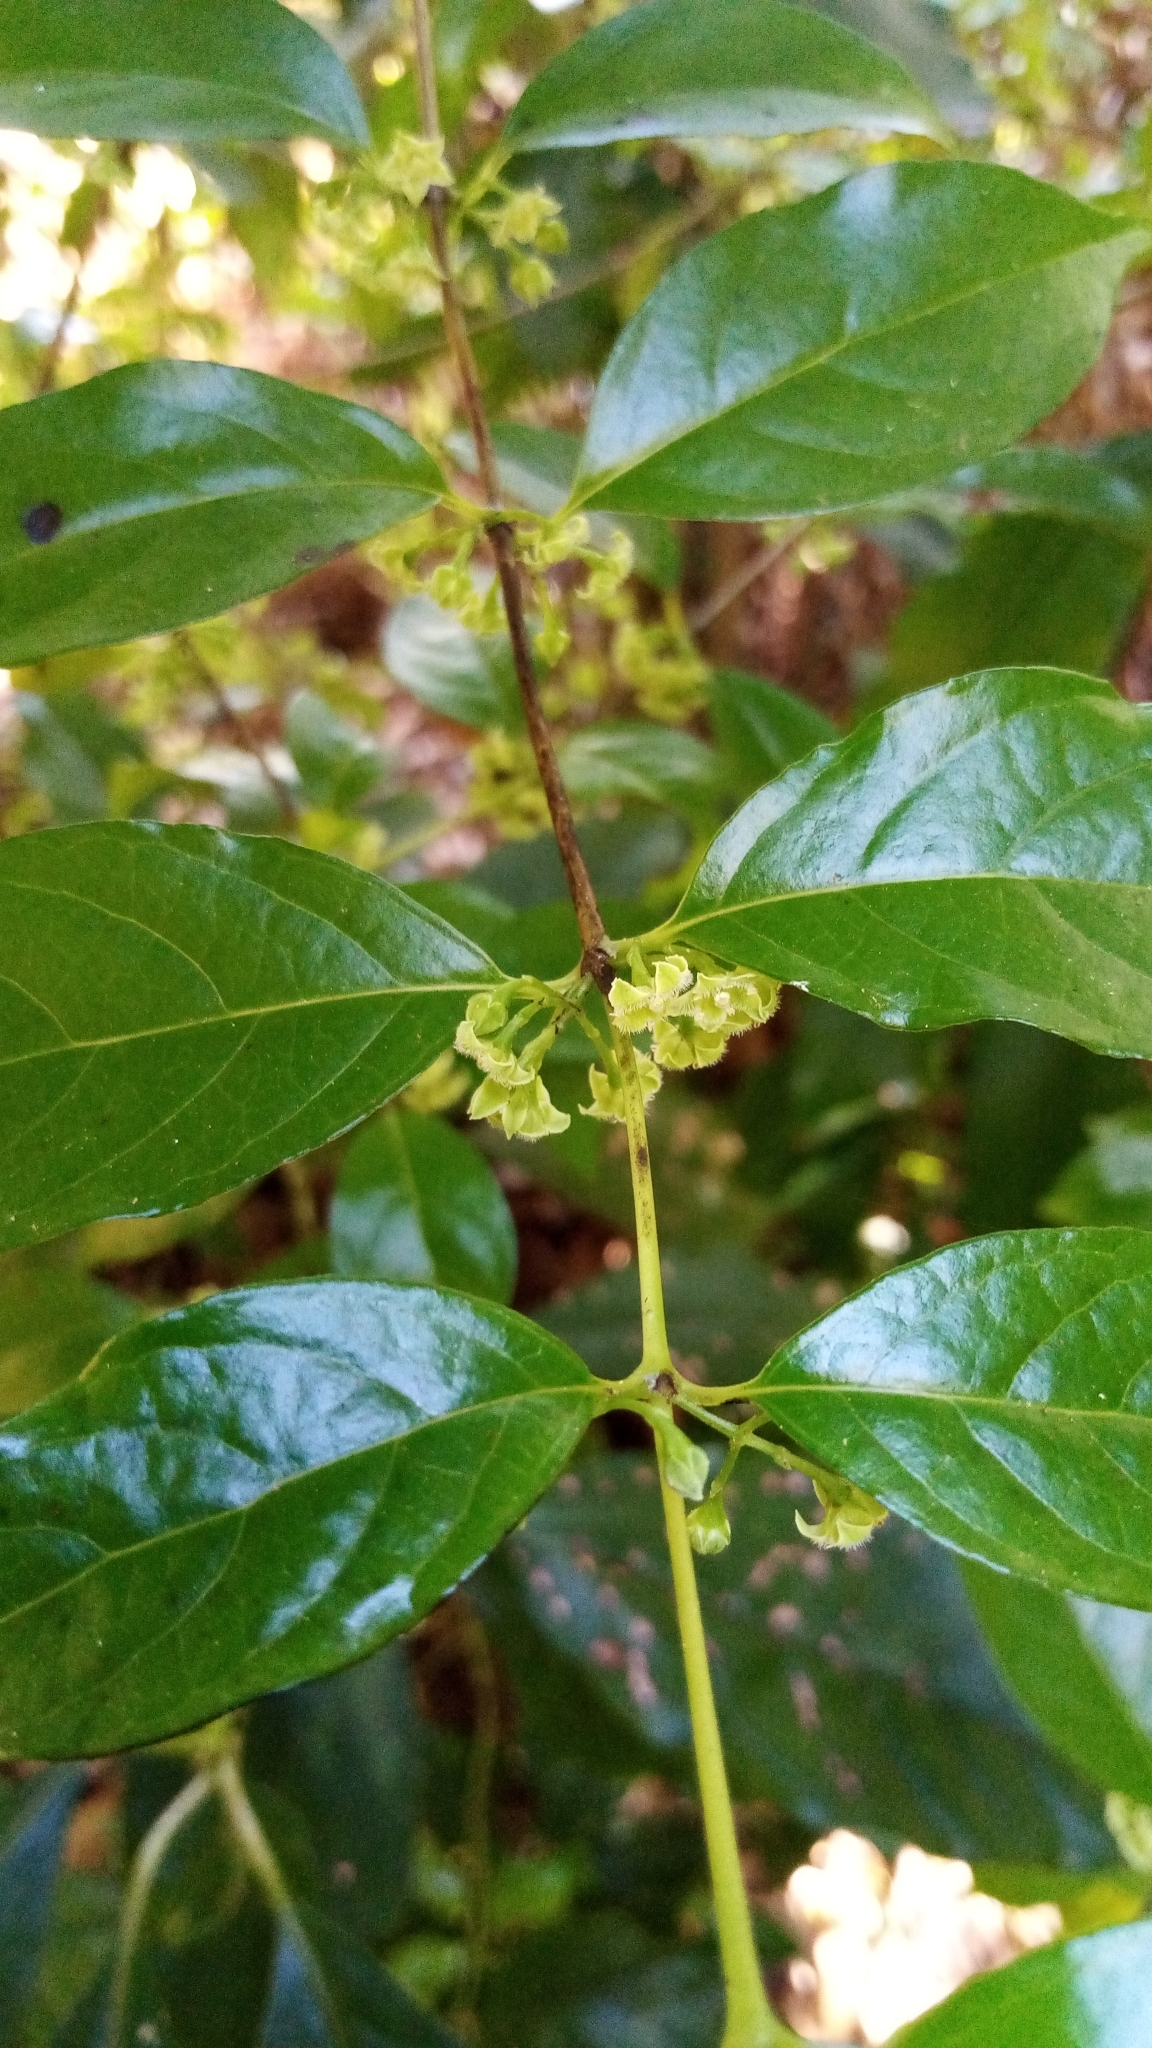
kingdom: Plantae
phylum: Tracheophyta
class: Magnoliopsida
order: Gentianales
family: Loganiaceae
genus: Geniostoma
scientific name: Geniostoma ligustrifolium
